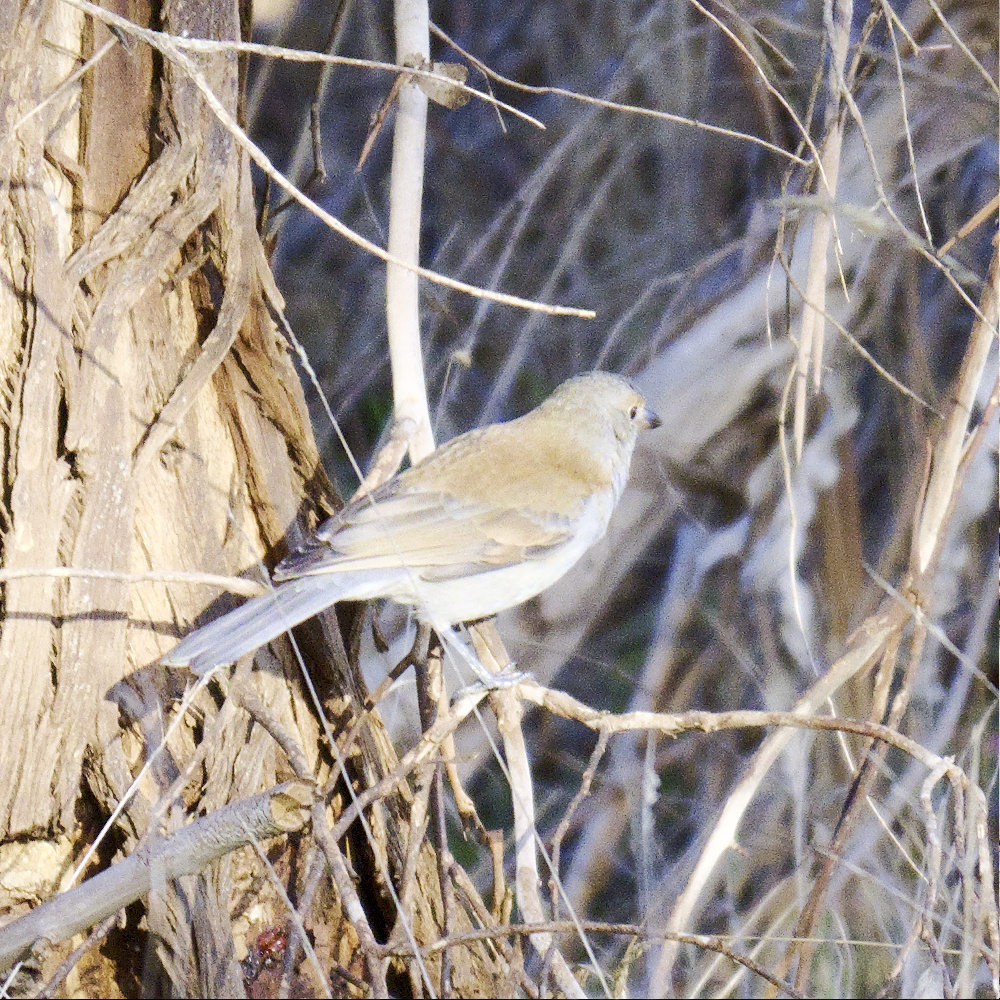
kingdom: Animalia
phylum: Chordata
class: Aves
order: Passeriformes
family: Pachycephalidae
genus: Colluricincla
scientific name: Colluricincla harmonica
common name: Grey shrikethrush
